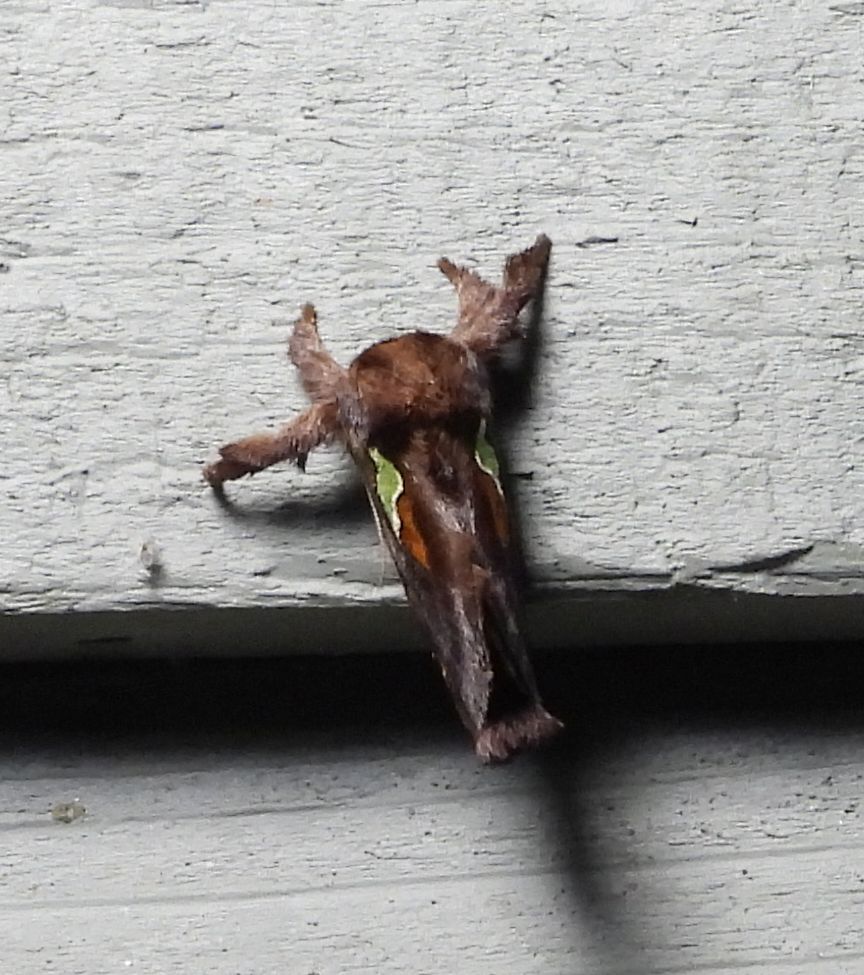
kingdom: Animalia
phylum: Arthropoda
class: Insecta
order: Lepidoptera
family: Limacodidae
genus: Euclea
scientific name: Euclea delphinii
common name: Spiny oak-slug moth
